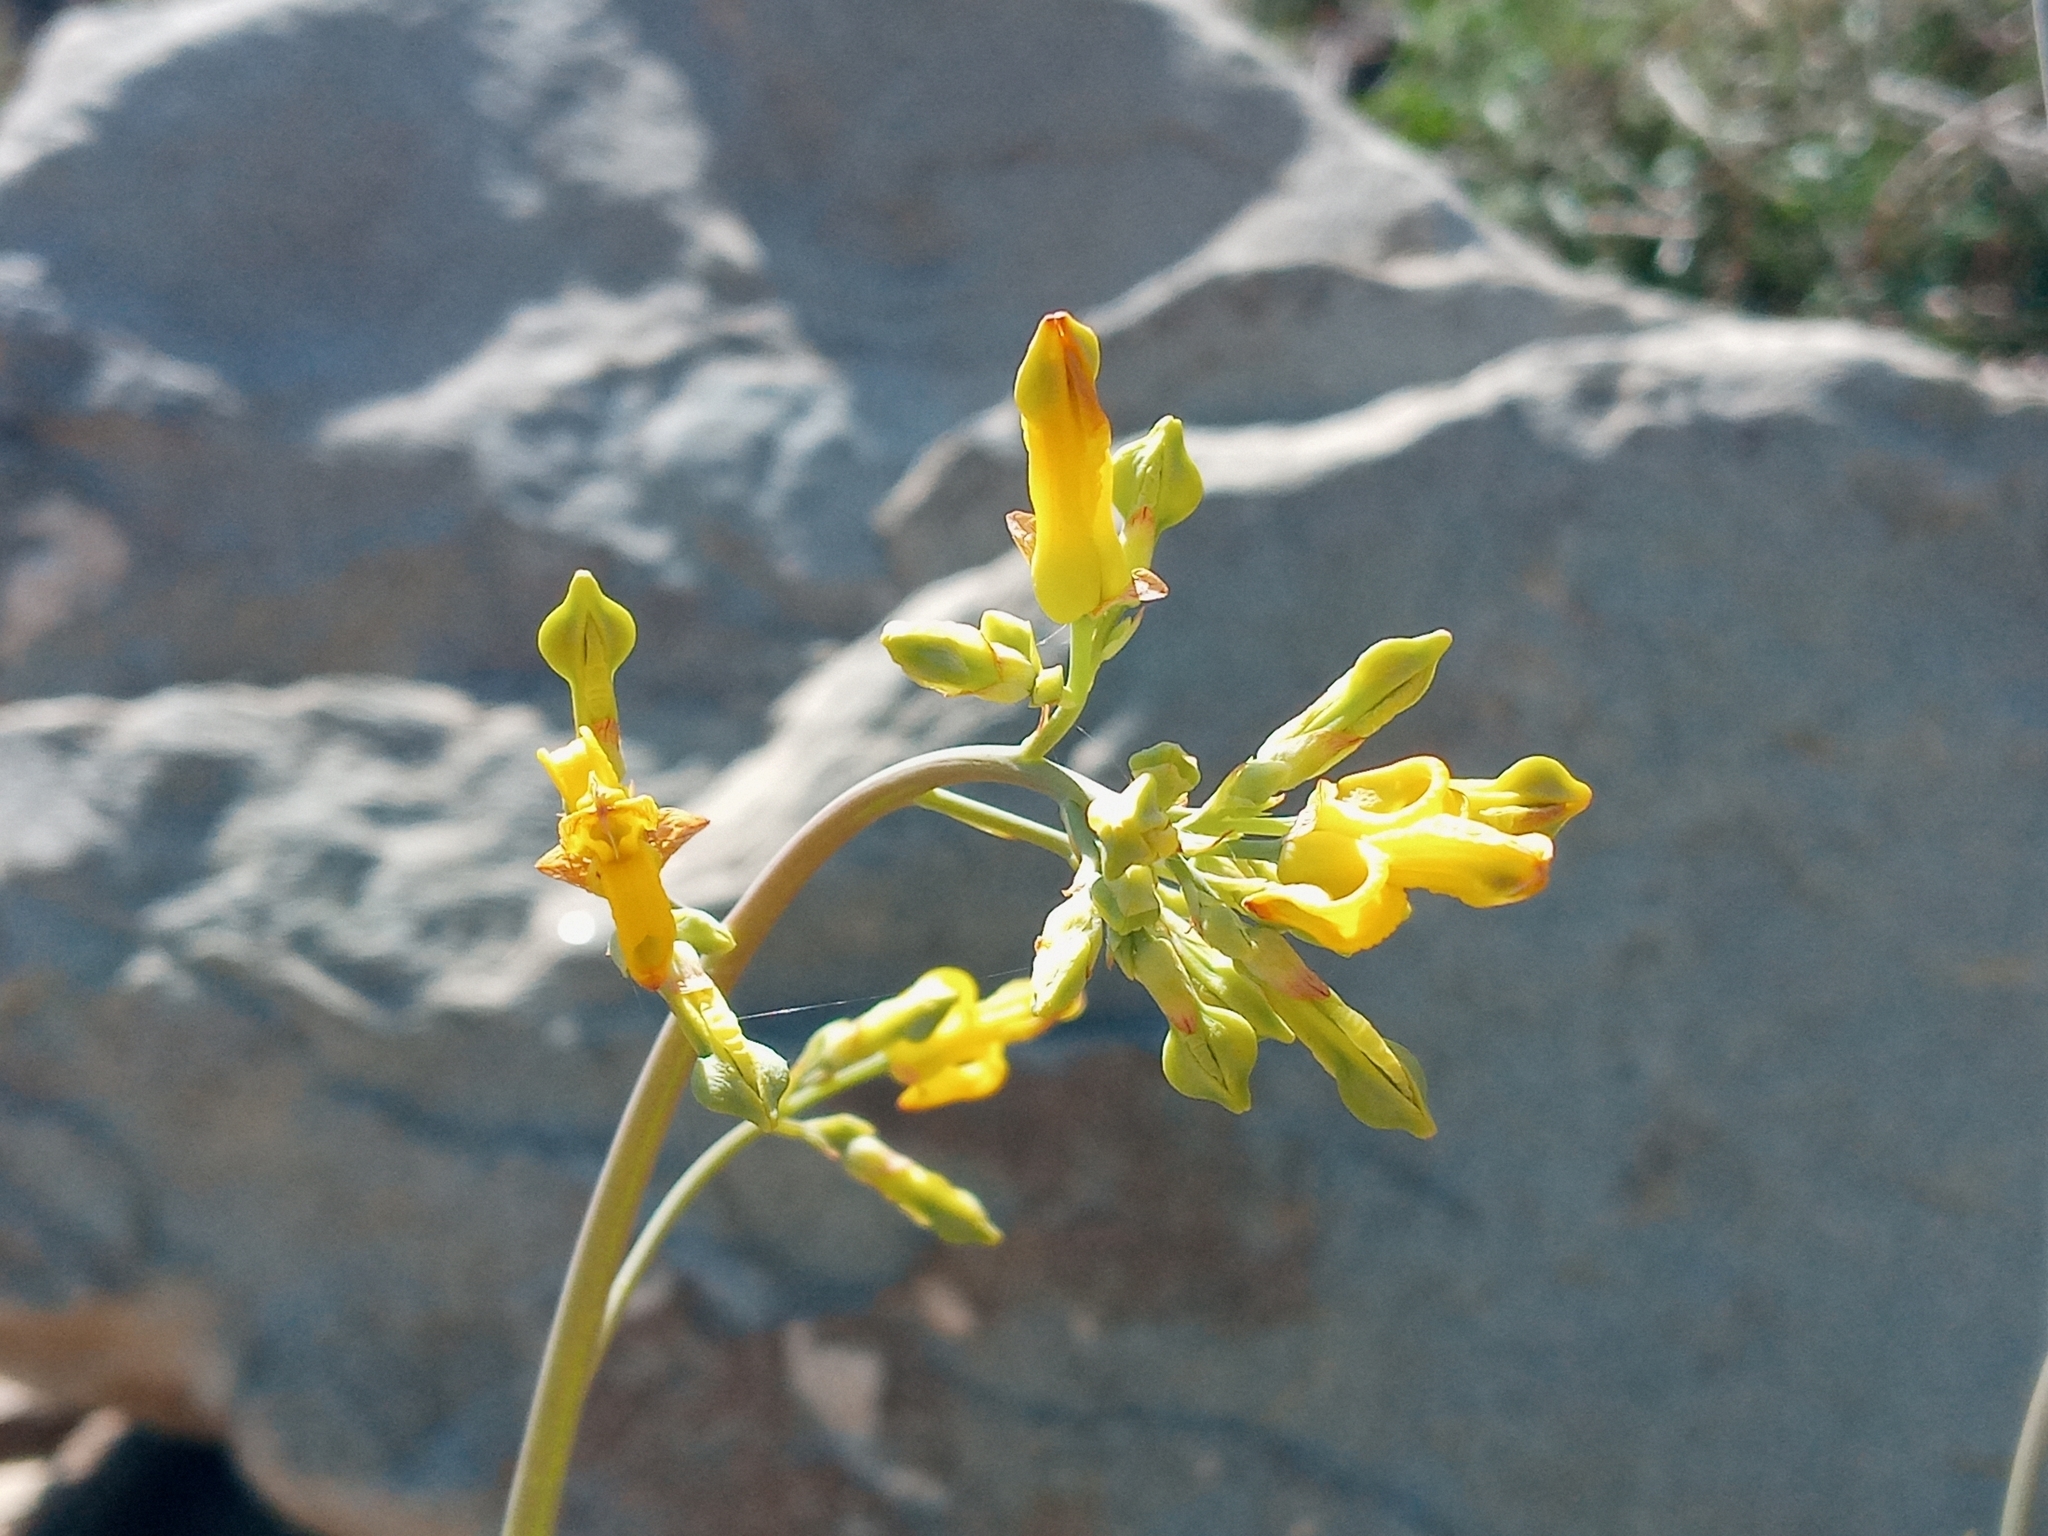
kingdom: Plantae
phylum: Tracheophyta
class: Magnoliopsida
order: Ranunculales
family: Papaveraceae
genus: Ehrendorferia
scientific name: Ehrendorferia chrysantha
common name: Golden eardrops
